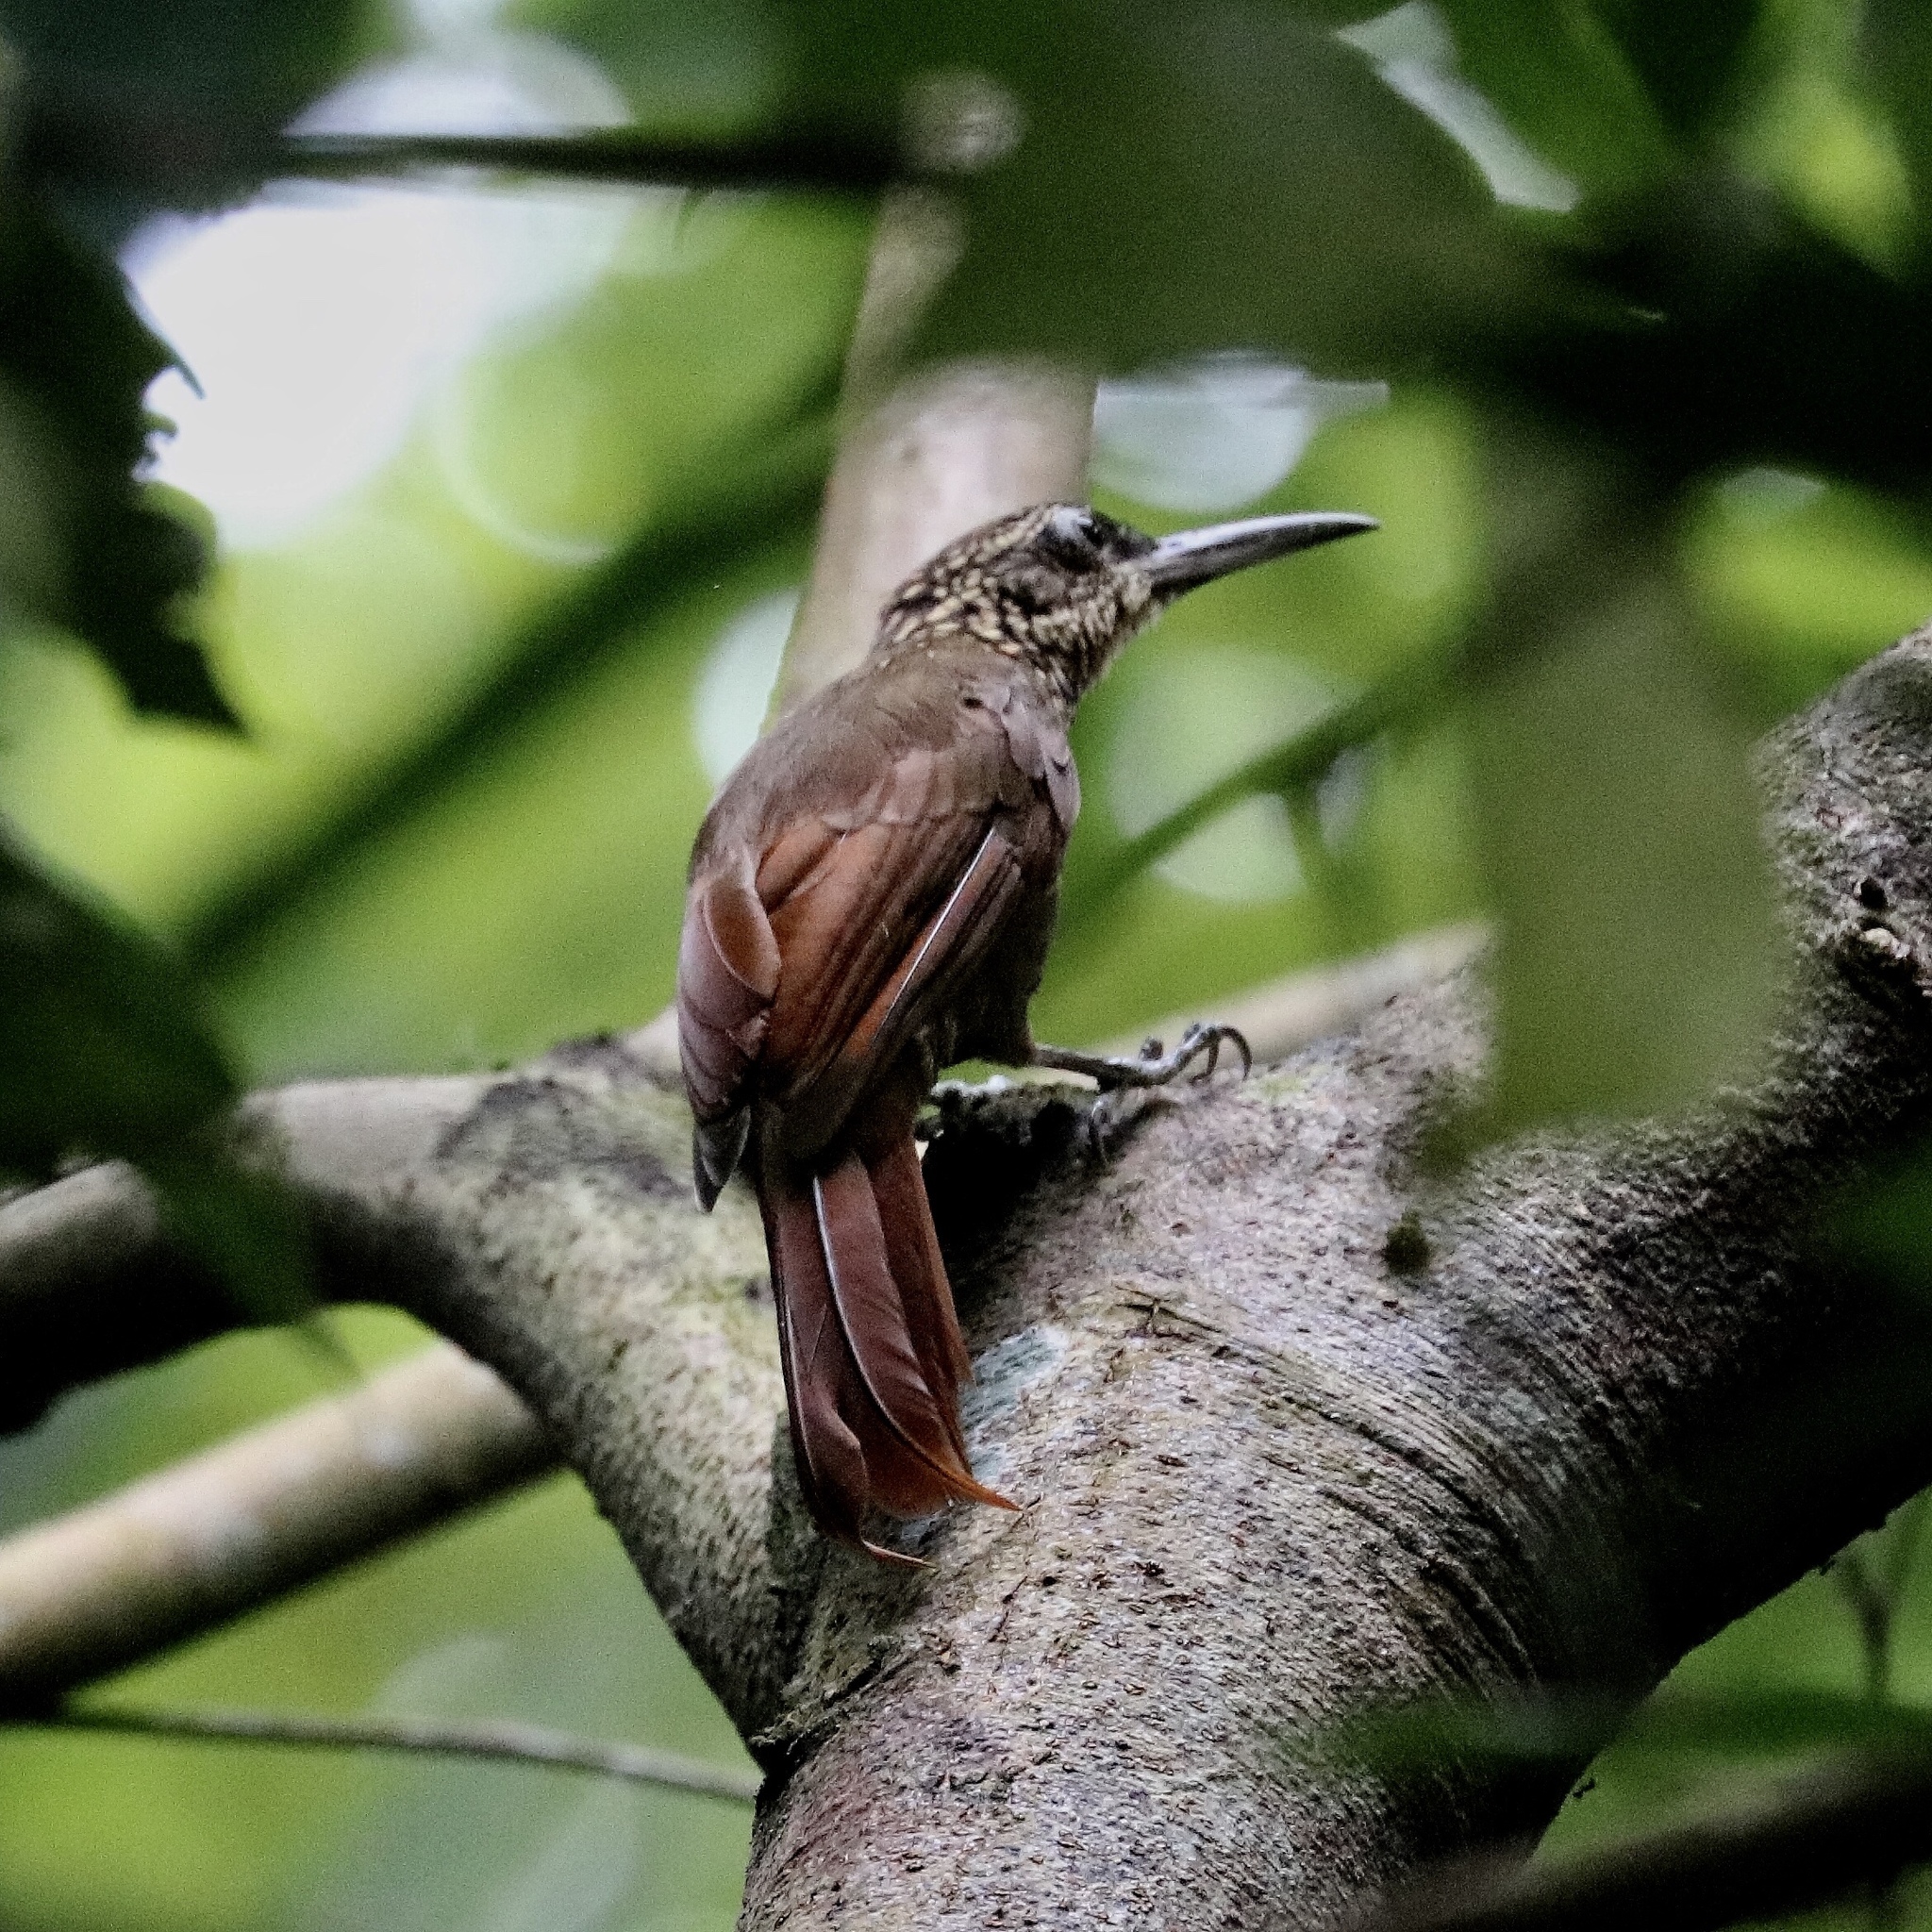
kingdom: Animalia
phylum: Chordata
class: Aves
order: Passeriformes
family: Furnariidae
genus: Xiphorhynchus
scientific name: Xiphorhynchus susurrans
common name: Cocoa woodcreeper
